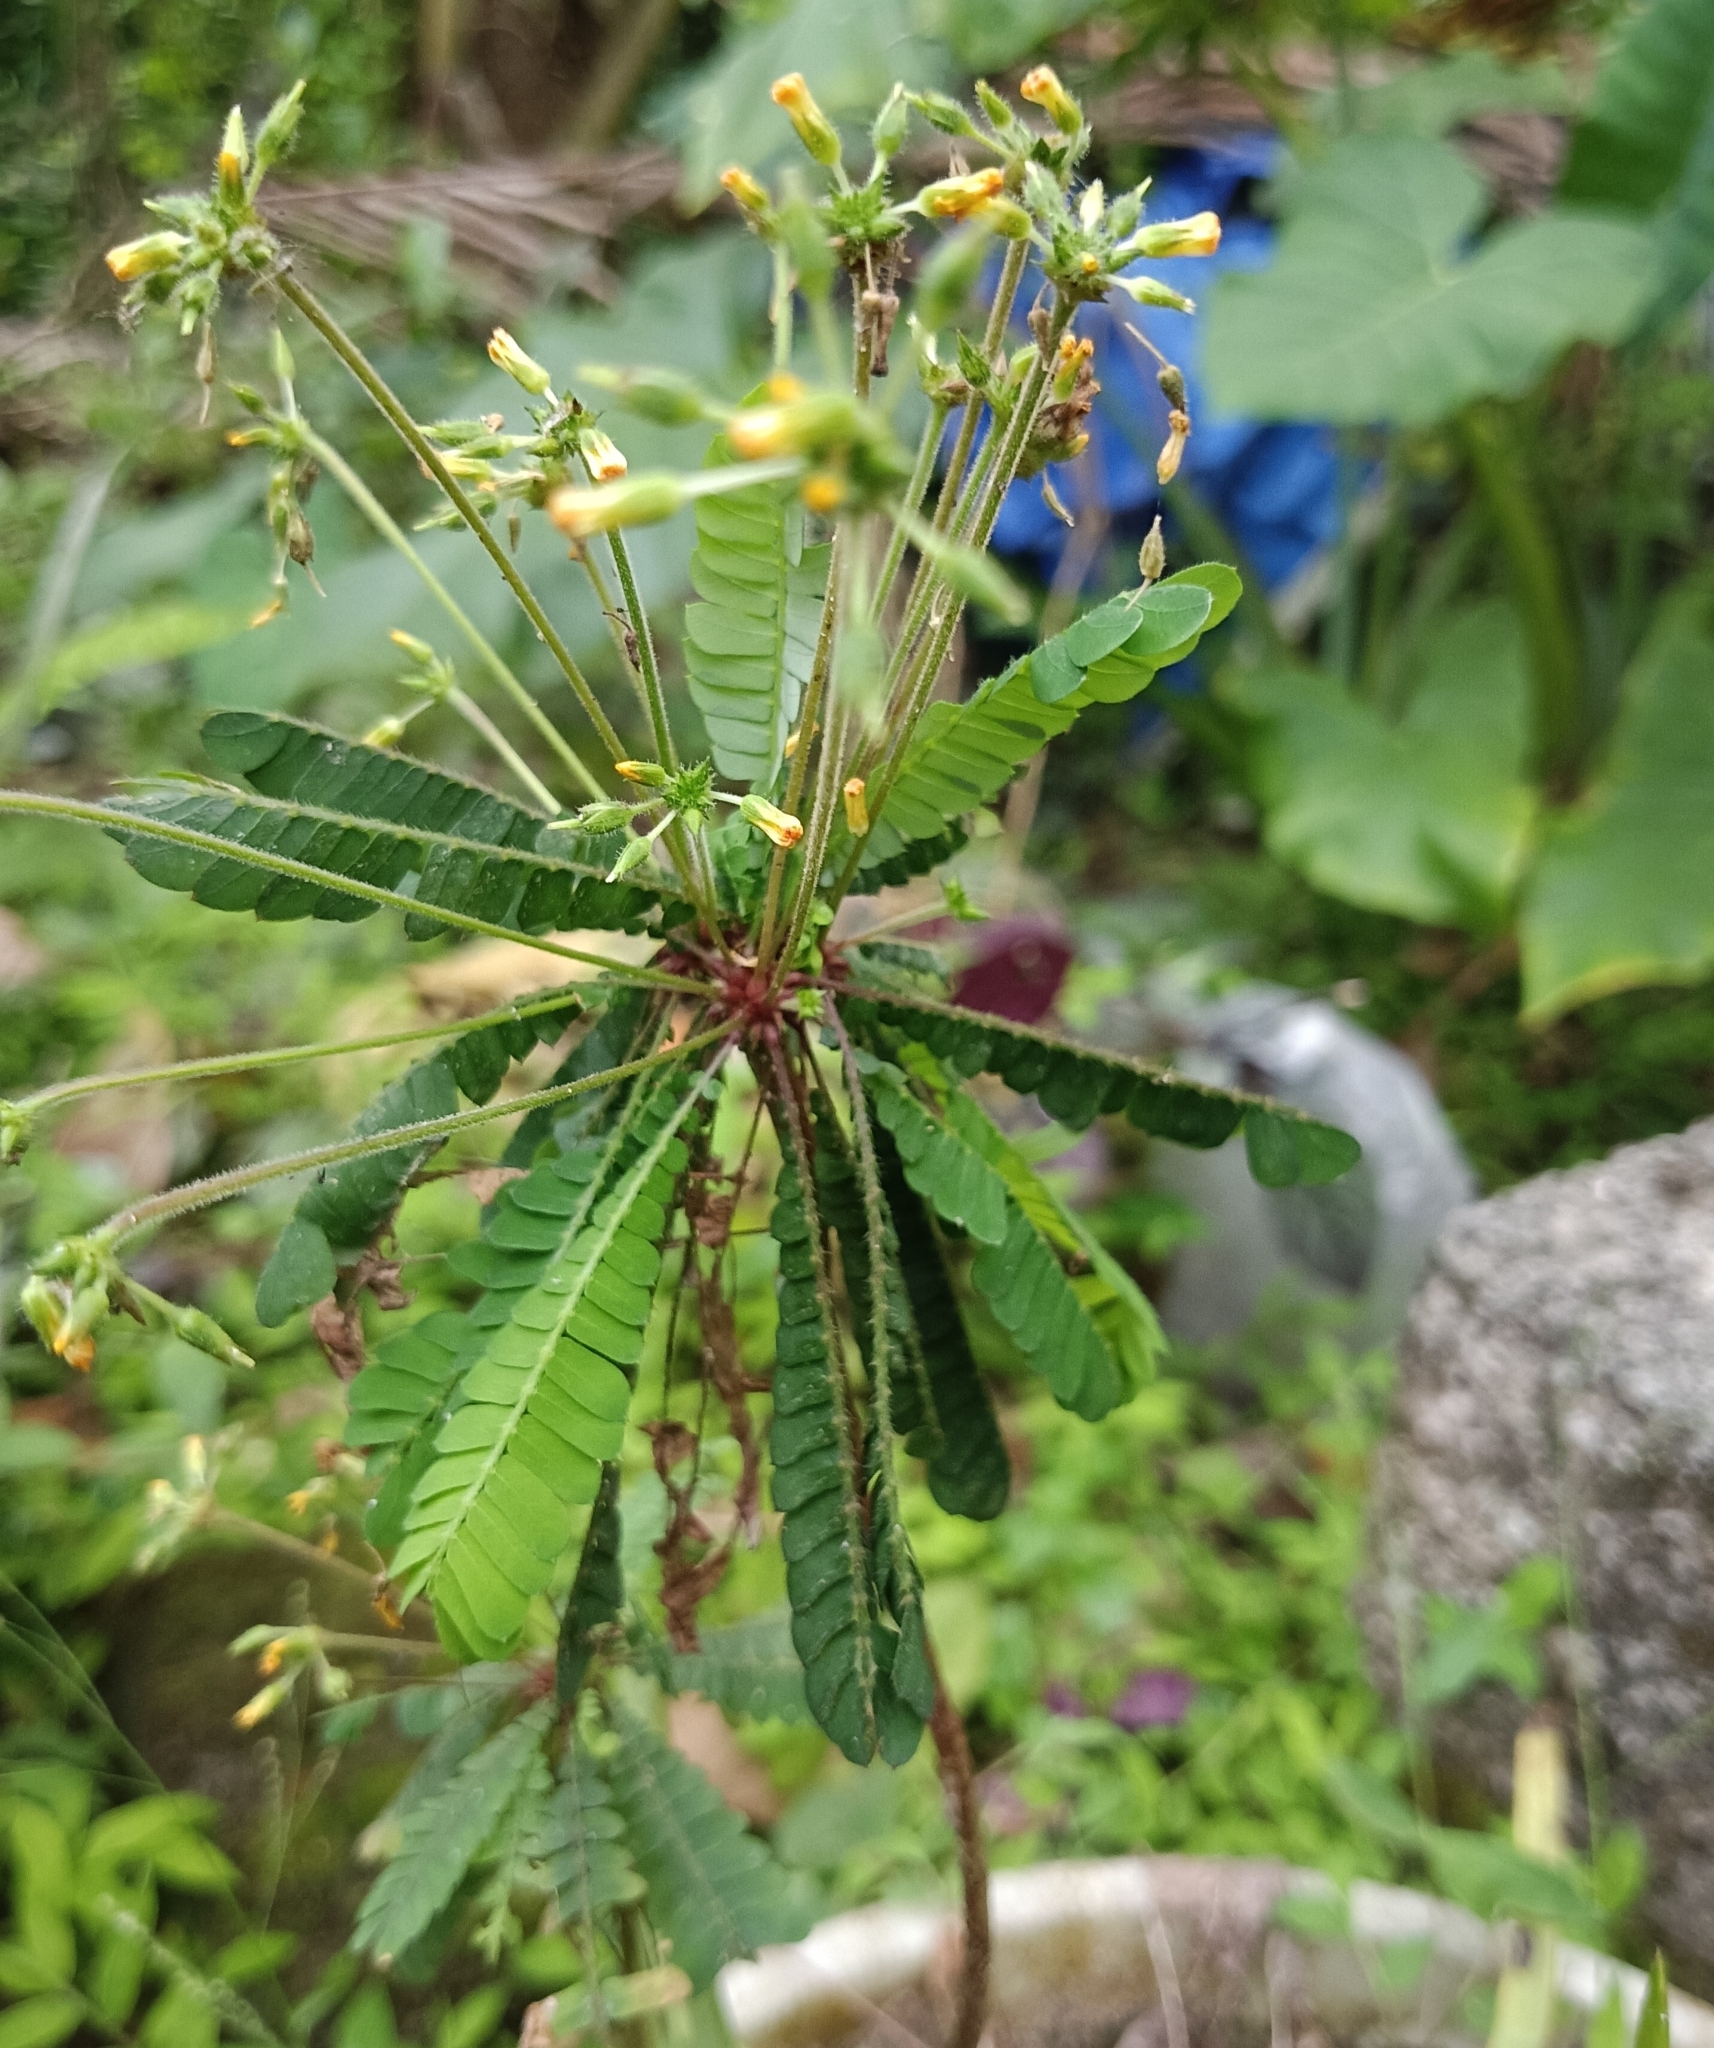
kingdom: Plantae
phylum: Tracheophyta
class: Magnoliopsida
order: Oxalidales
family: Oxalidaceae
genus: Biophytum
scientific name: Biophytum sensitivum
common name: Lifeplant
